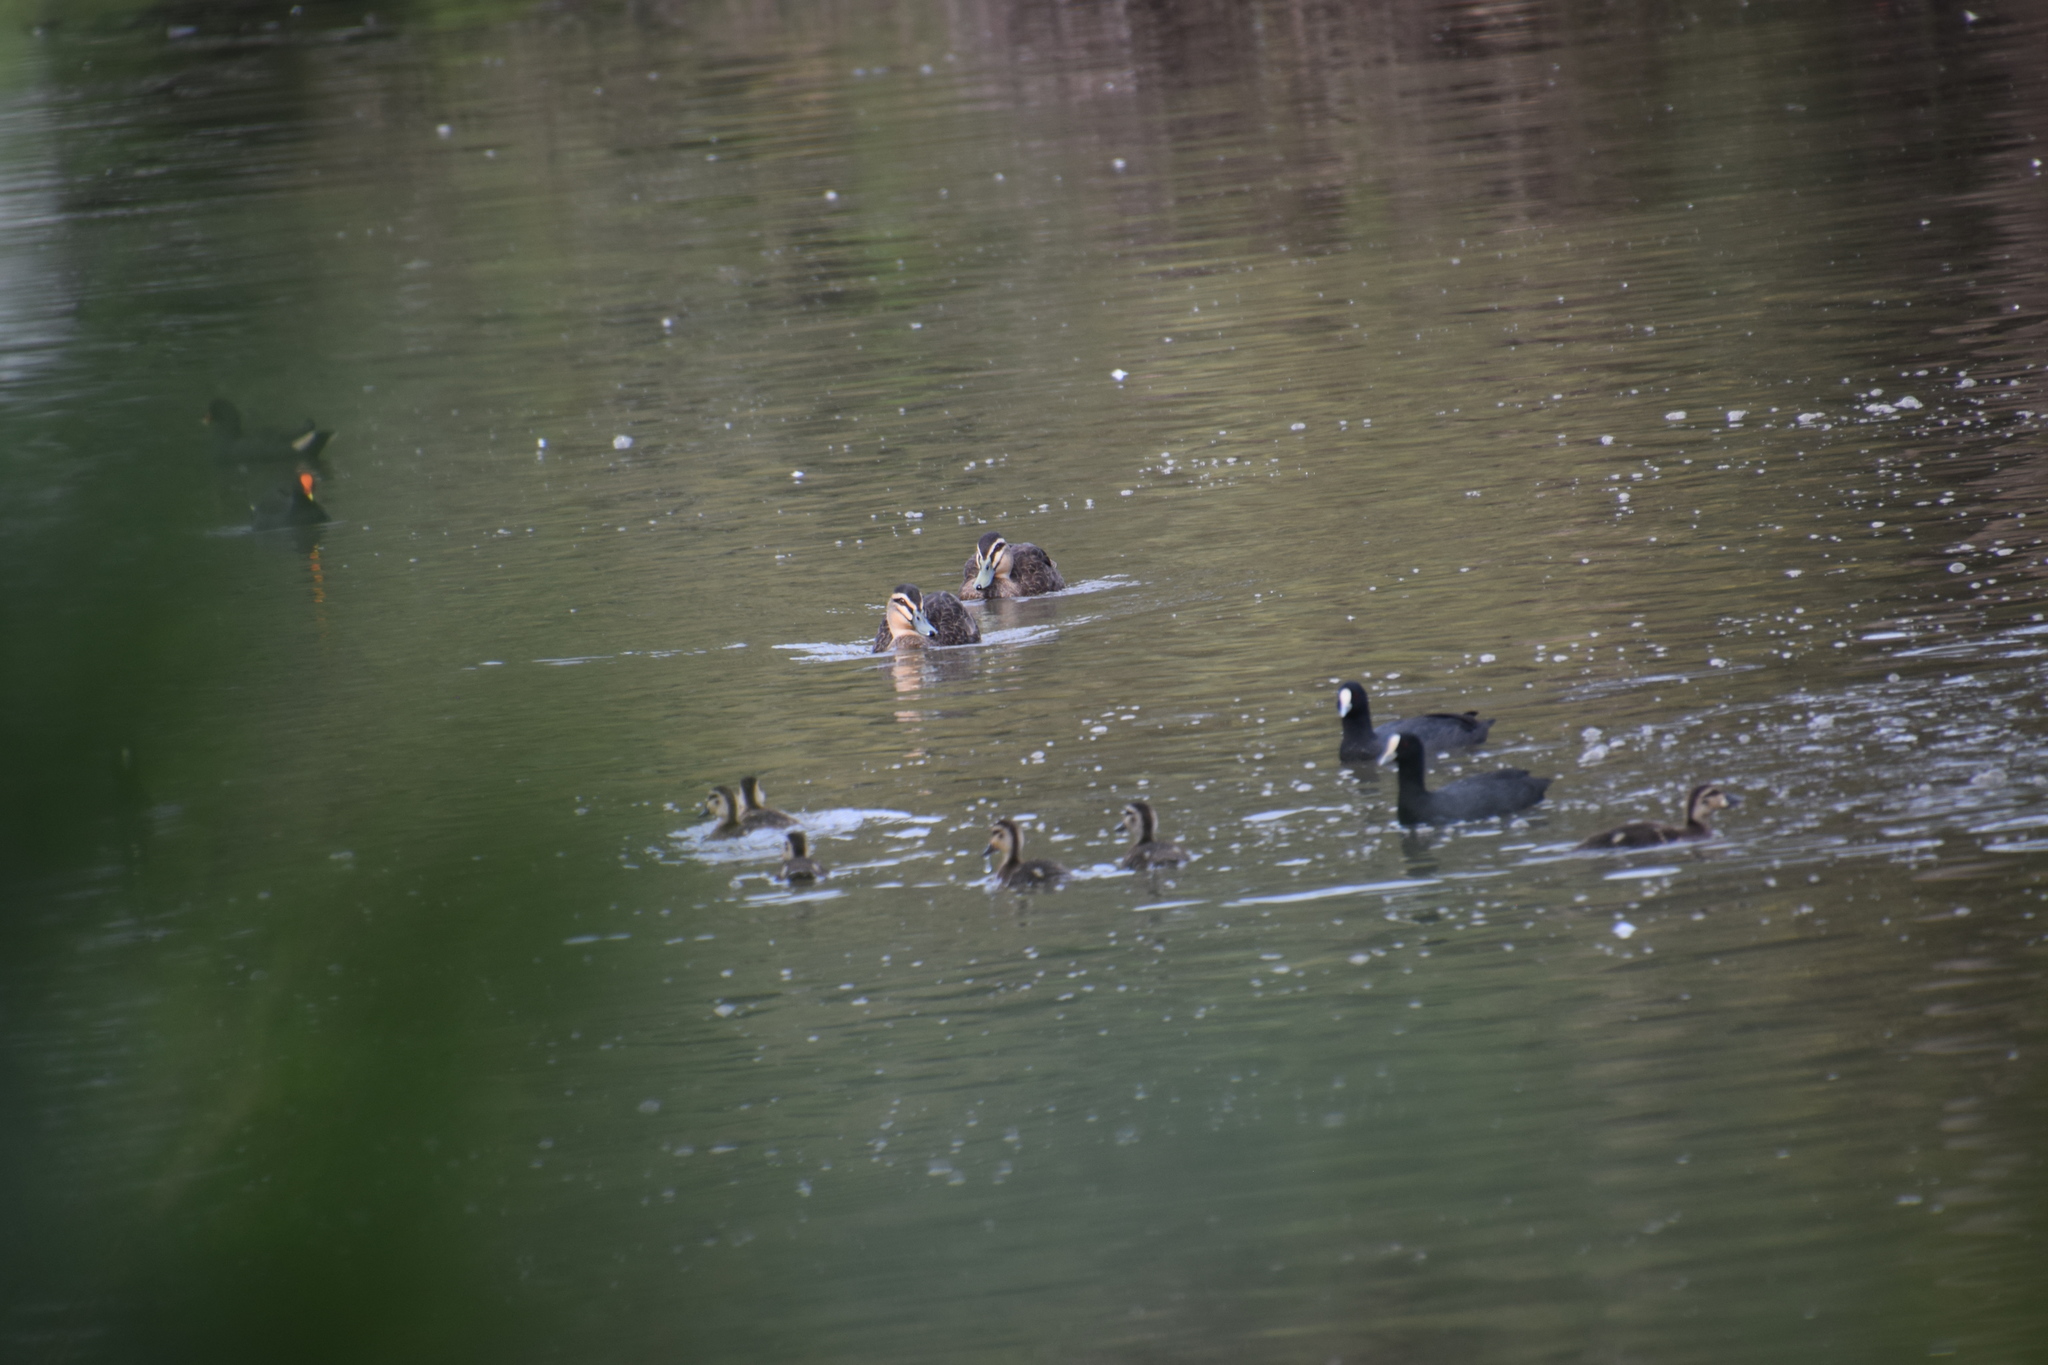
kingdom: Animalia
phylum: Chordata
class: Aves
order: Gruiformes
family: Rallidae
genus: Fulica
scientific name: Fulica atra
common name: Eurasian coot
